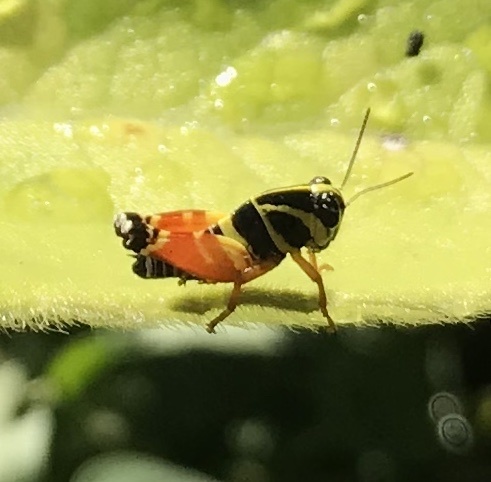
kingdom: Animalia
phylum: Arthropoda
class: Insecta
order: Orthoptera
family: Acrididae
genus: Aidemona
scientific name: Aidemona azteca
